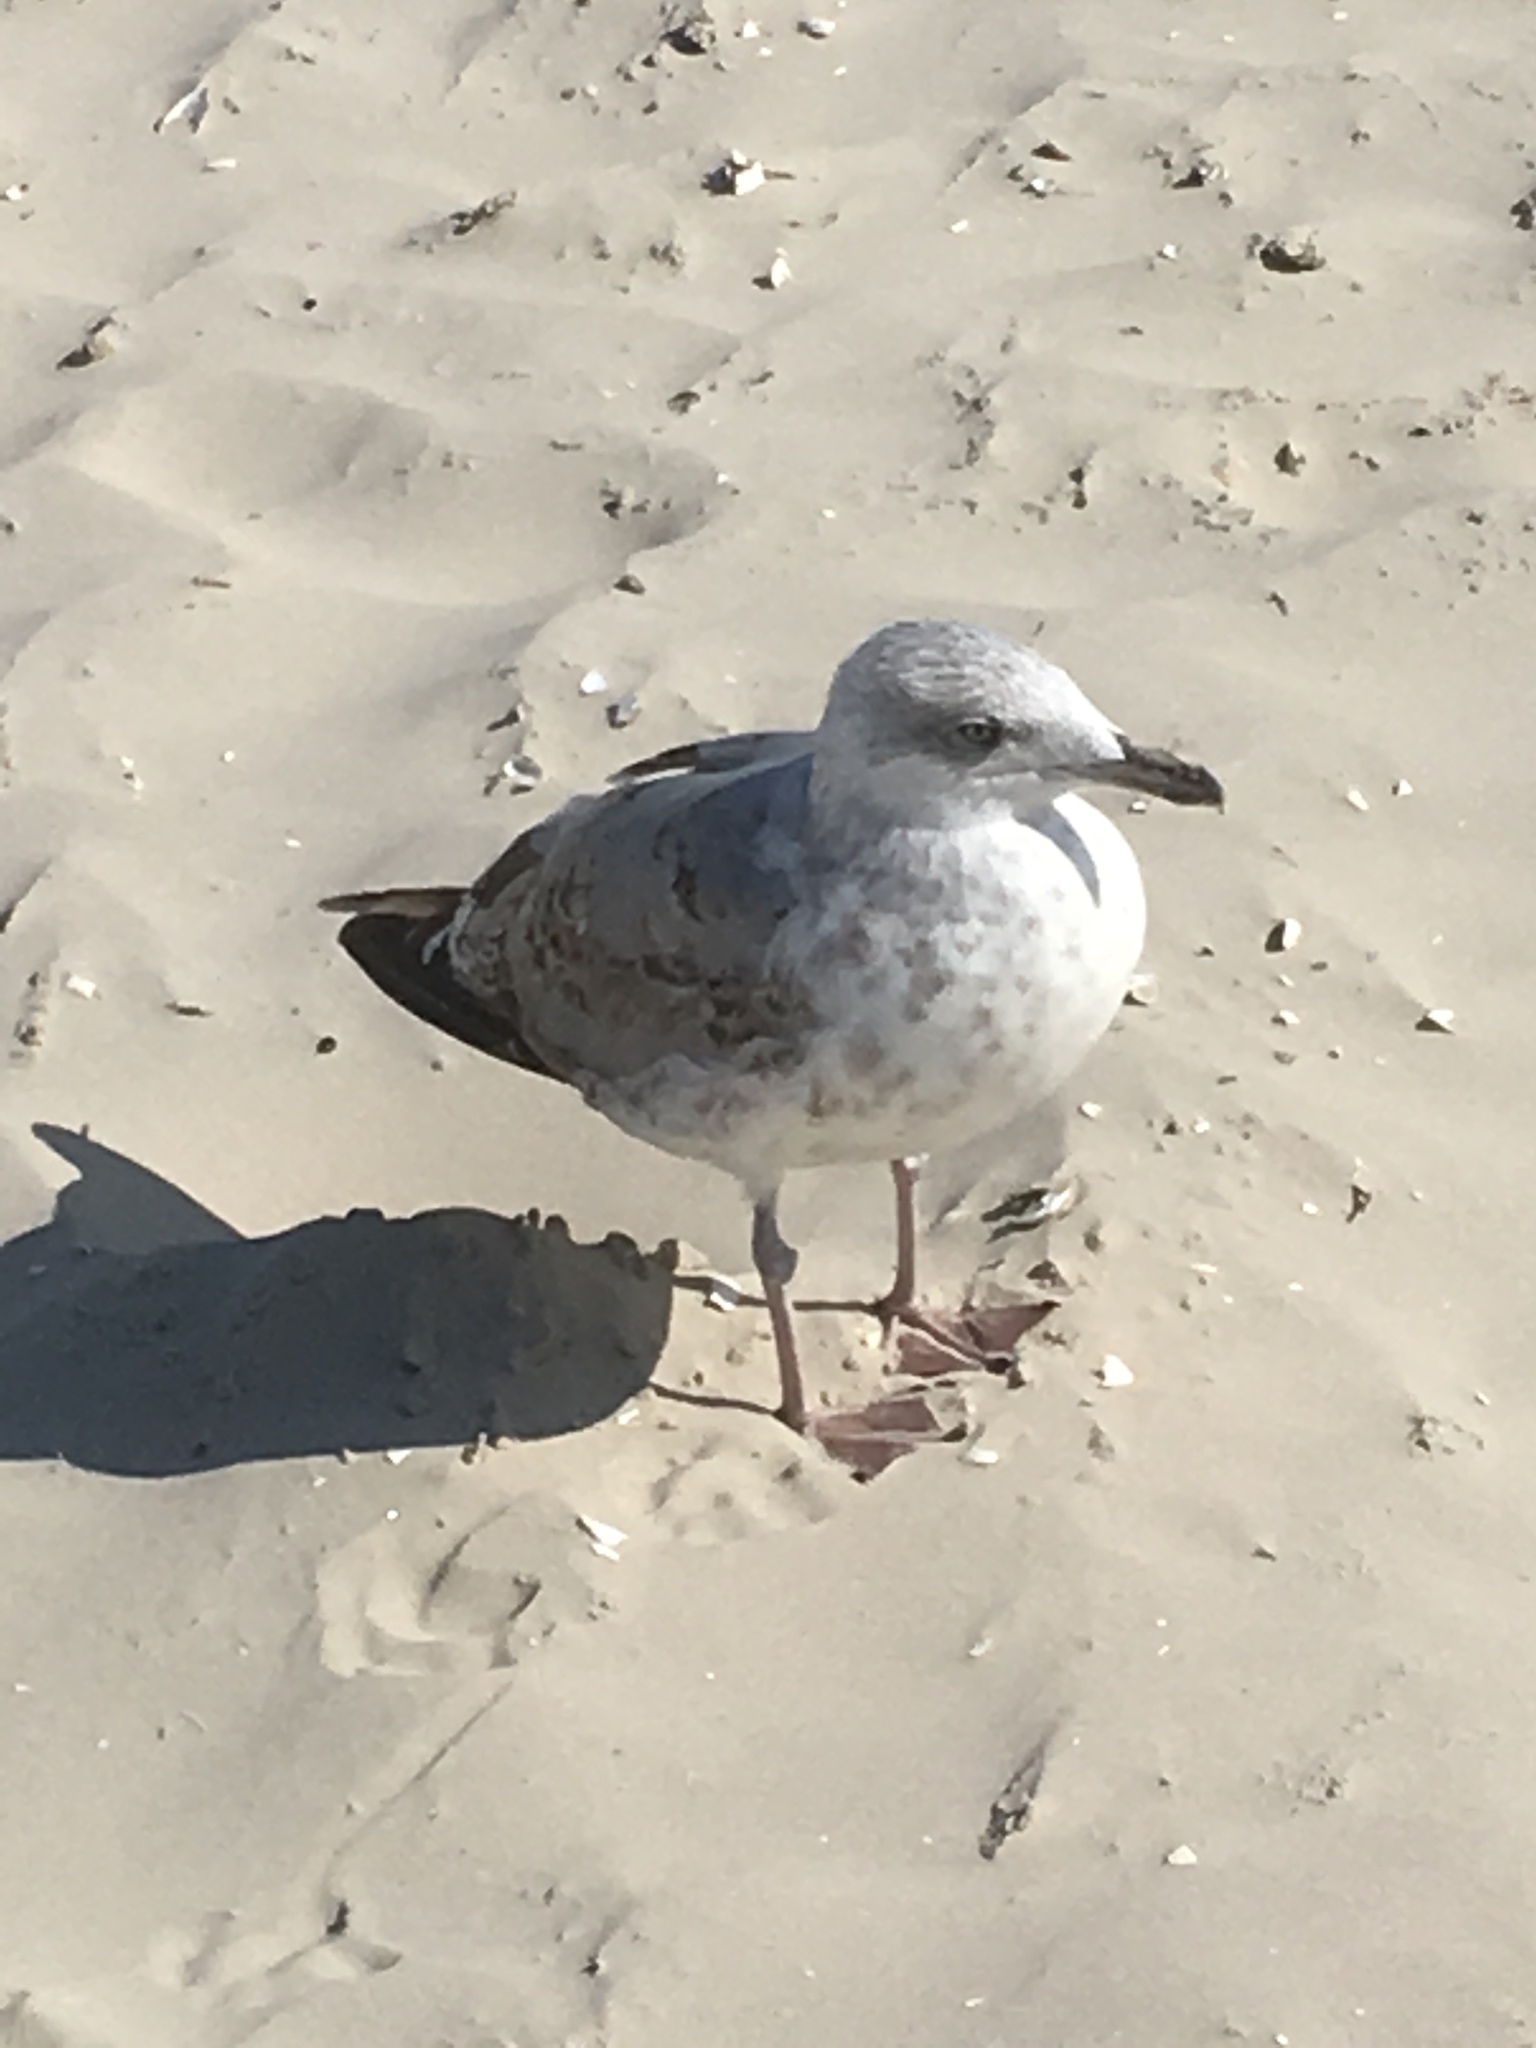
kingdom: Animalia
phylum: Chordata
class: Aves
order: Charadriiformes
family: Laridae
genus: Larus
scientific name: Larus argentatus
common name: Herring gull
